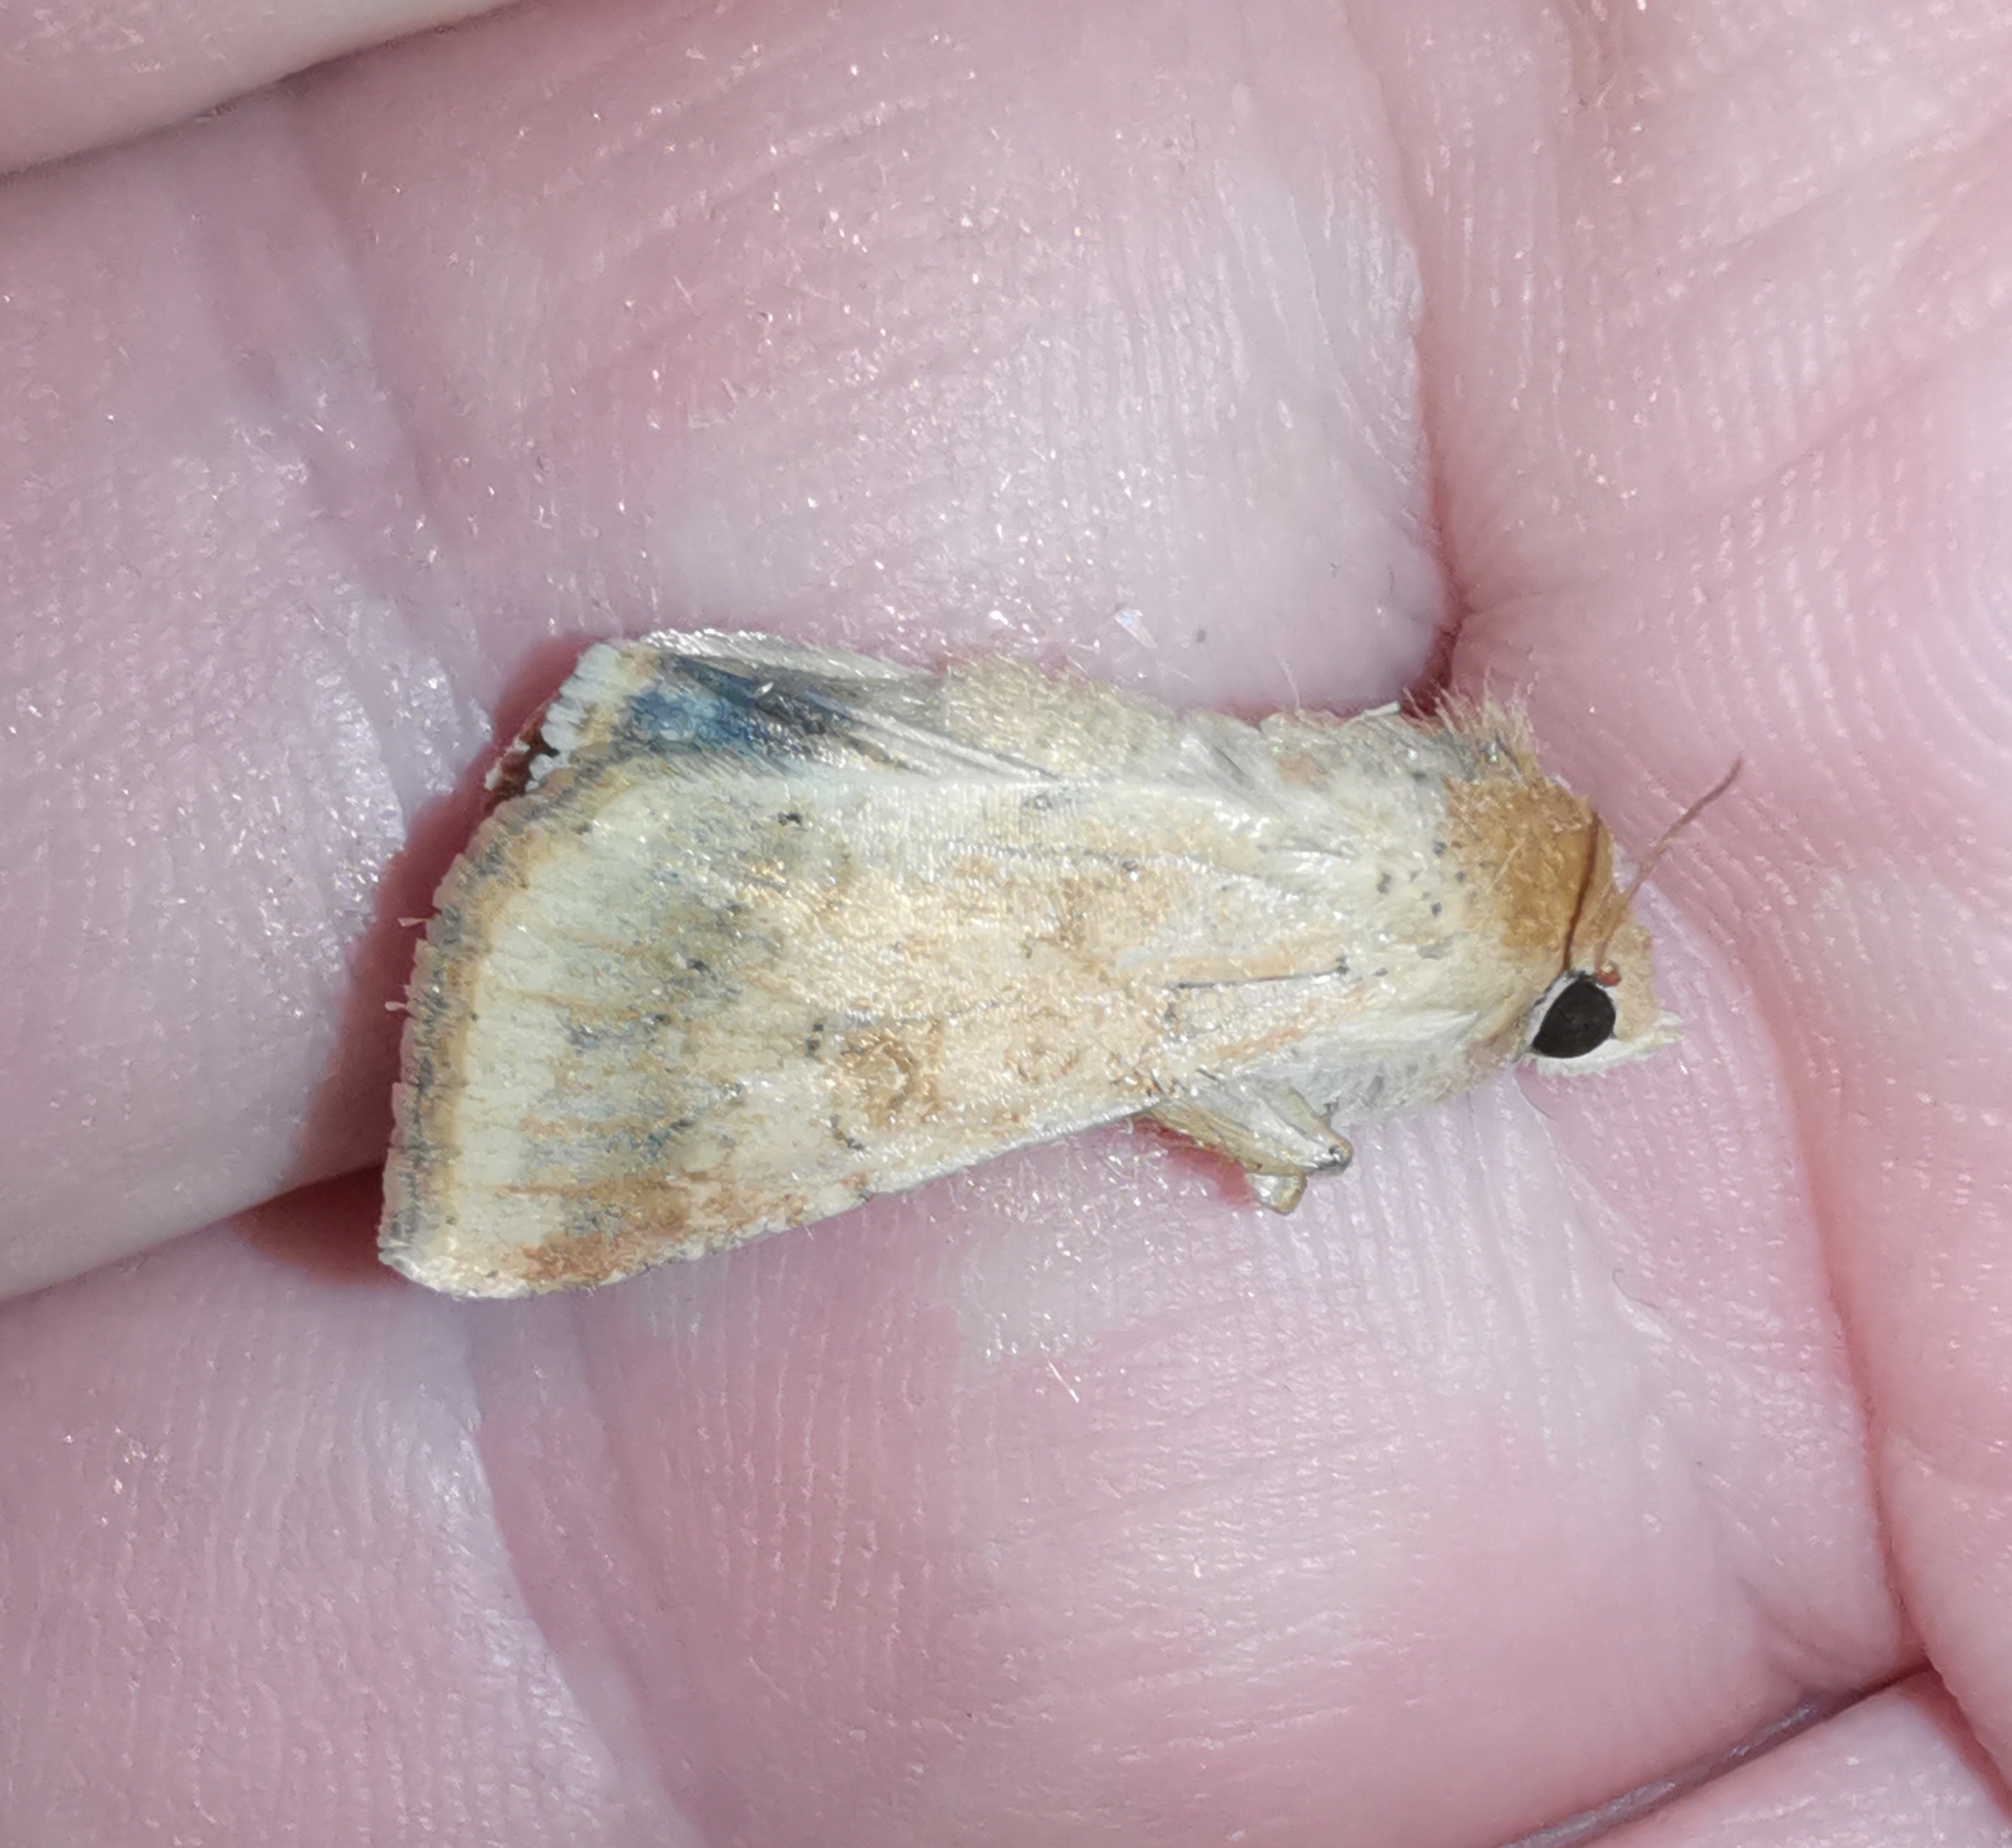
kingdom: Animalia
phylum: Arthropoda
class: Insecta
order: Lepidoptera
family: Noctuidae
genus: Helicoverpa
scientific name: Helicoverpa armigera
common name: Cotton bollworm
